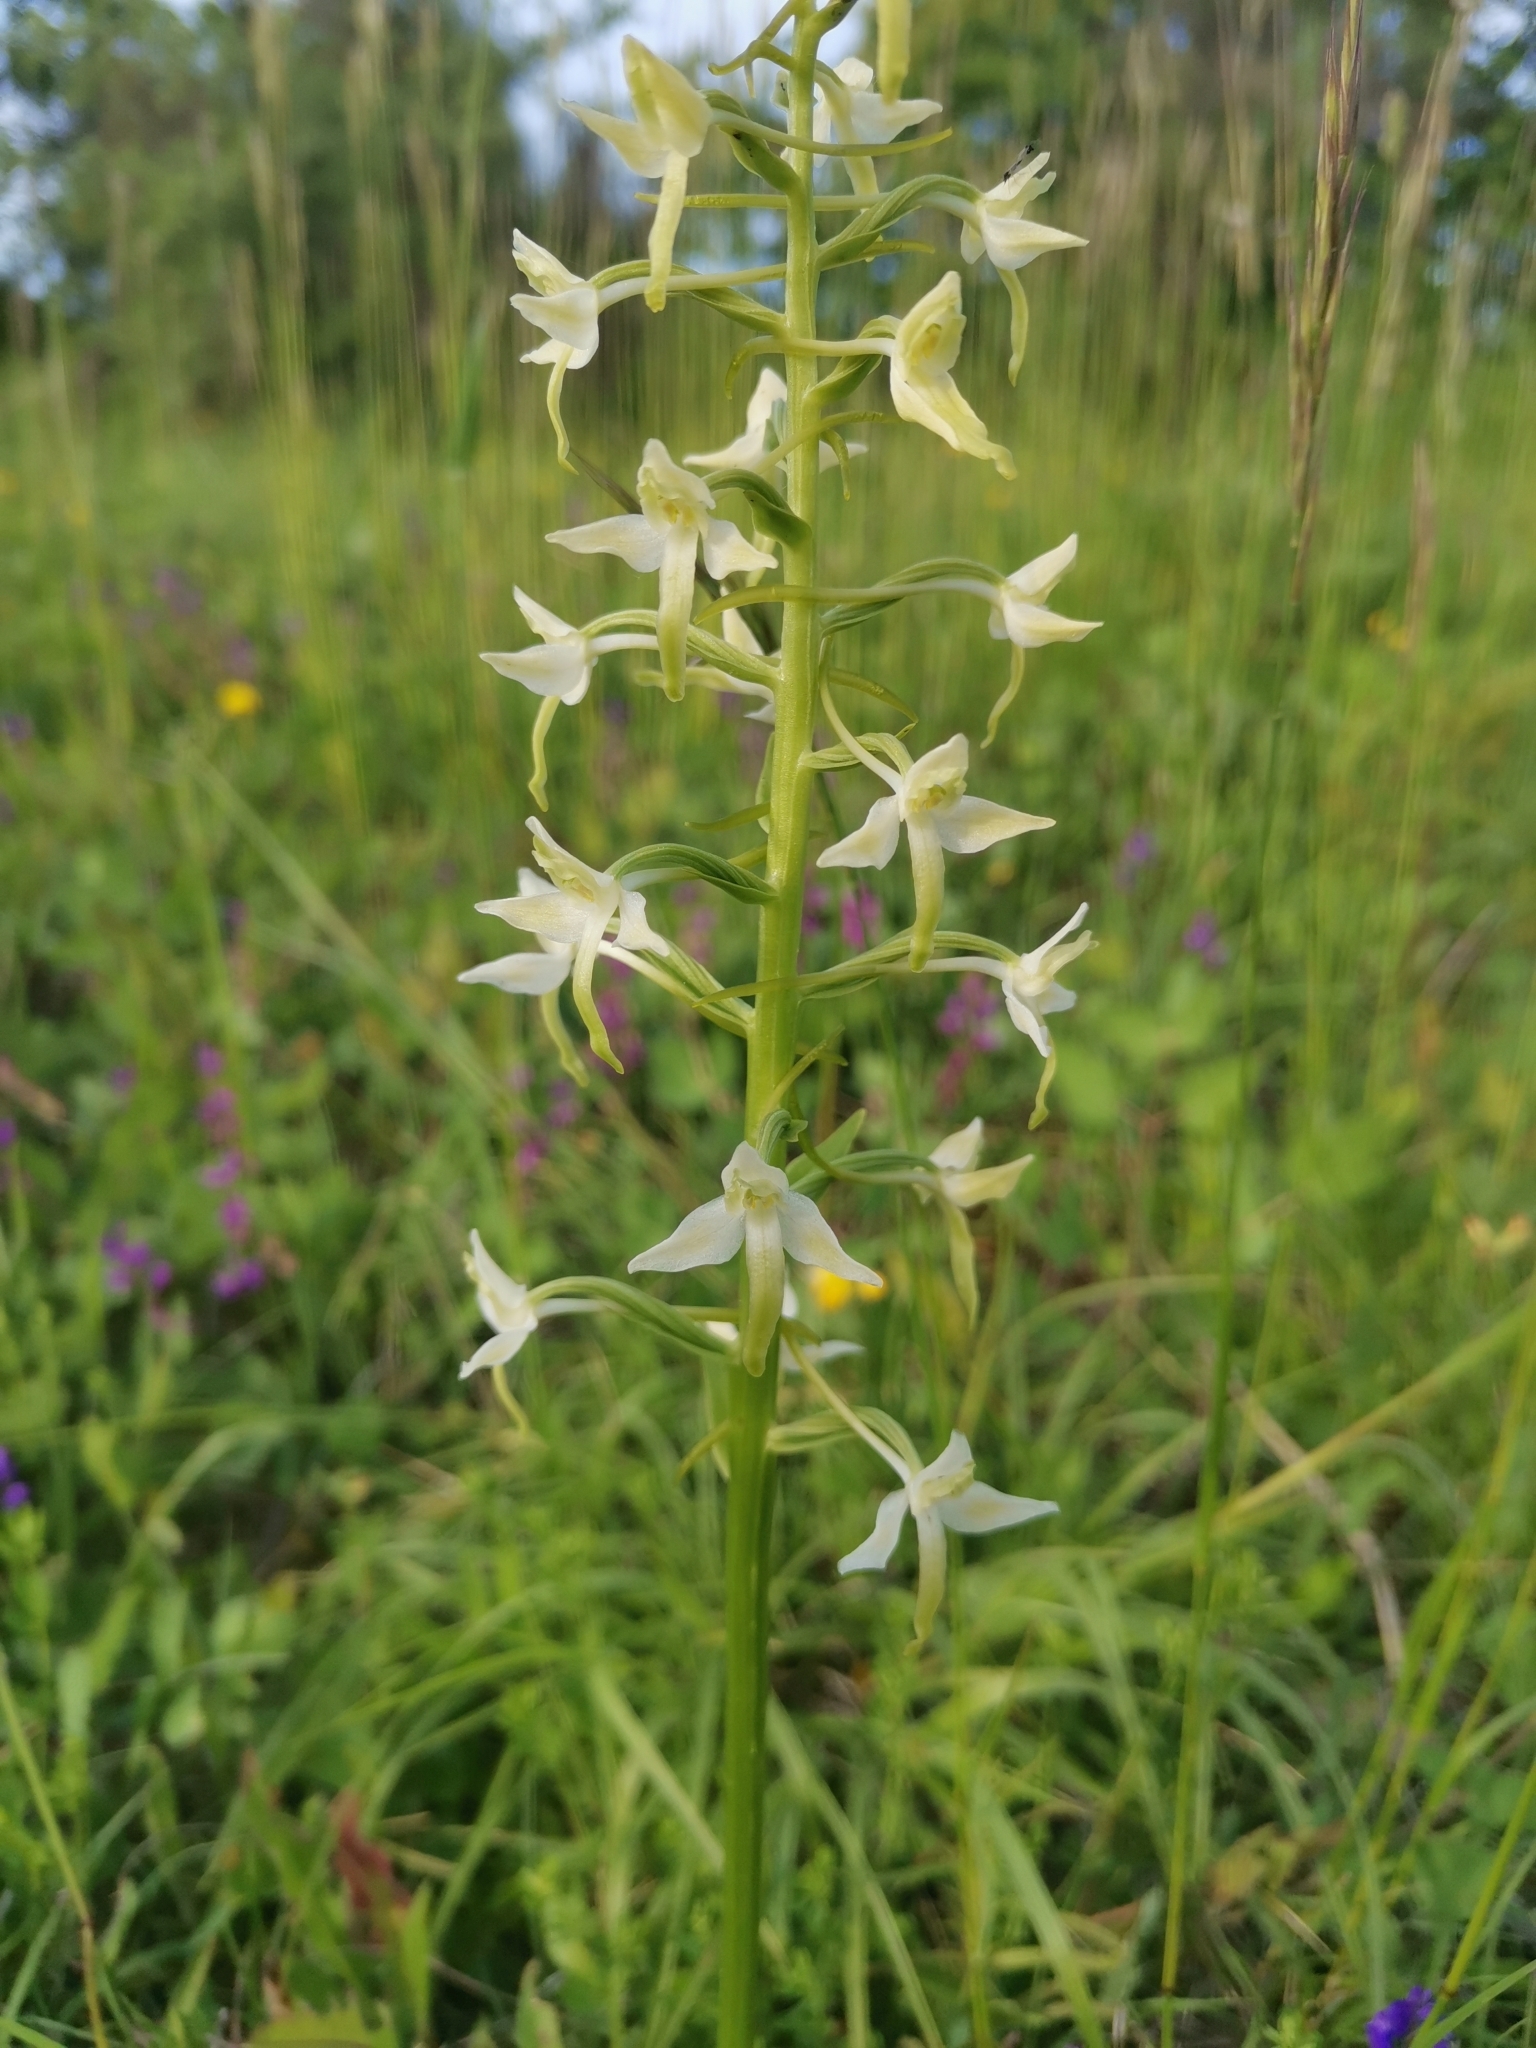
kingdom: Plantae
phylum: Tracheophyta
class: Liliopsida
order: Asparagales
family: Orchidaceae
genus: Platanthera
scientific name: Platanthera bifolia
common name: Lesser butterfly-orchid
